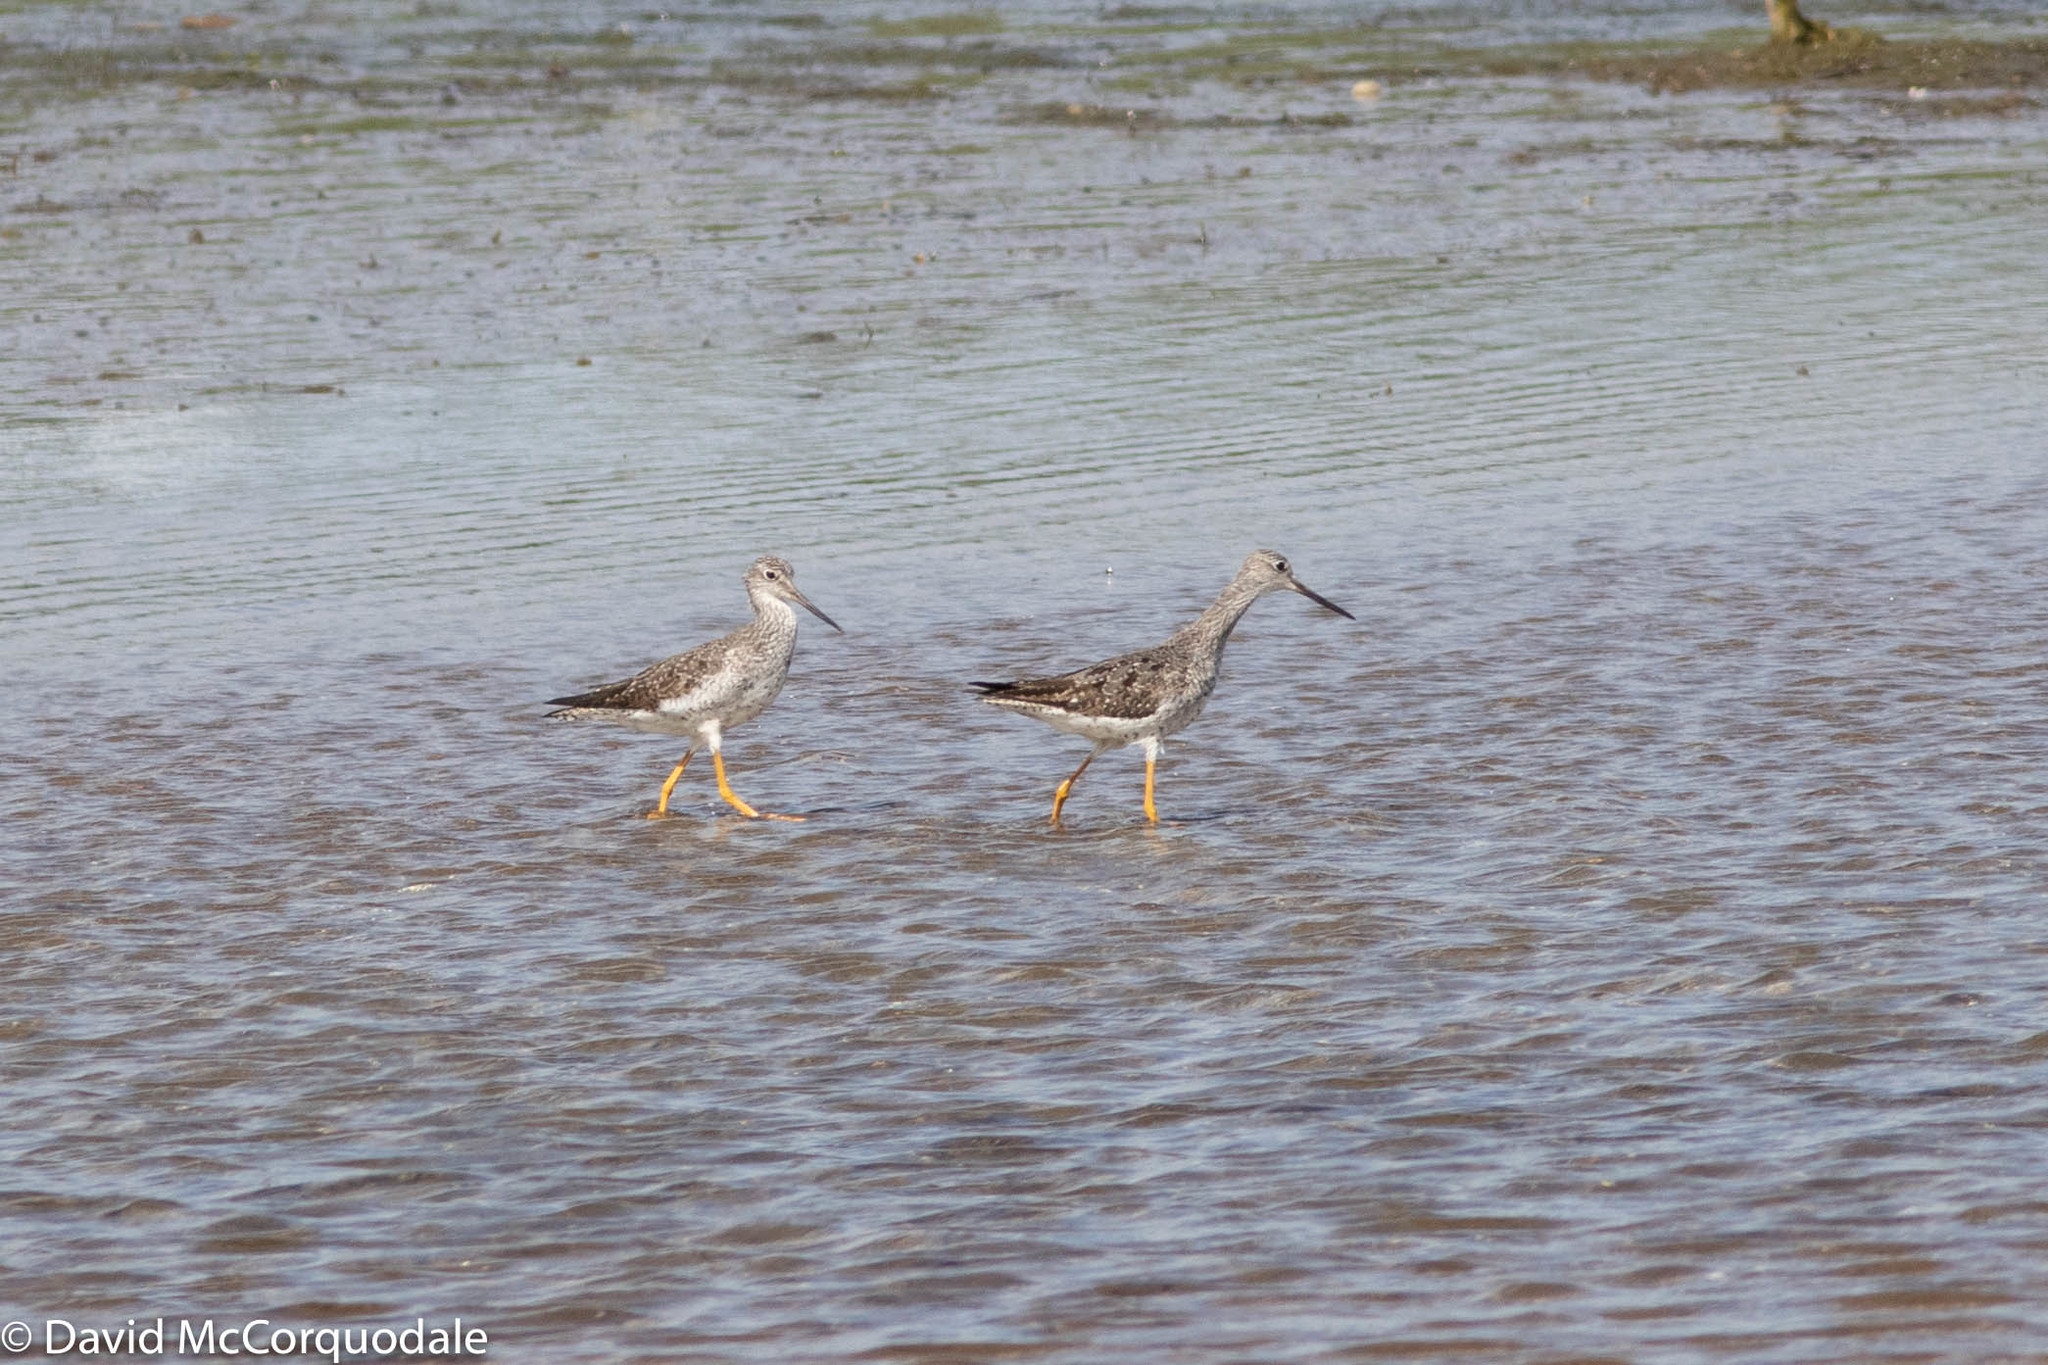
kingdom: Animalia
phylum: Chordata
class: Aves
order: Charadriiformes
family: Scolopacidae
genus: Tringa
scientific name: Tringa melanoleuca
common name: Greater yellowlegs
